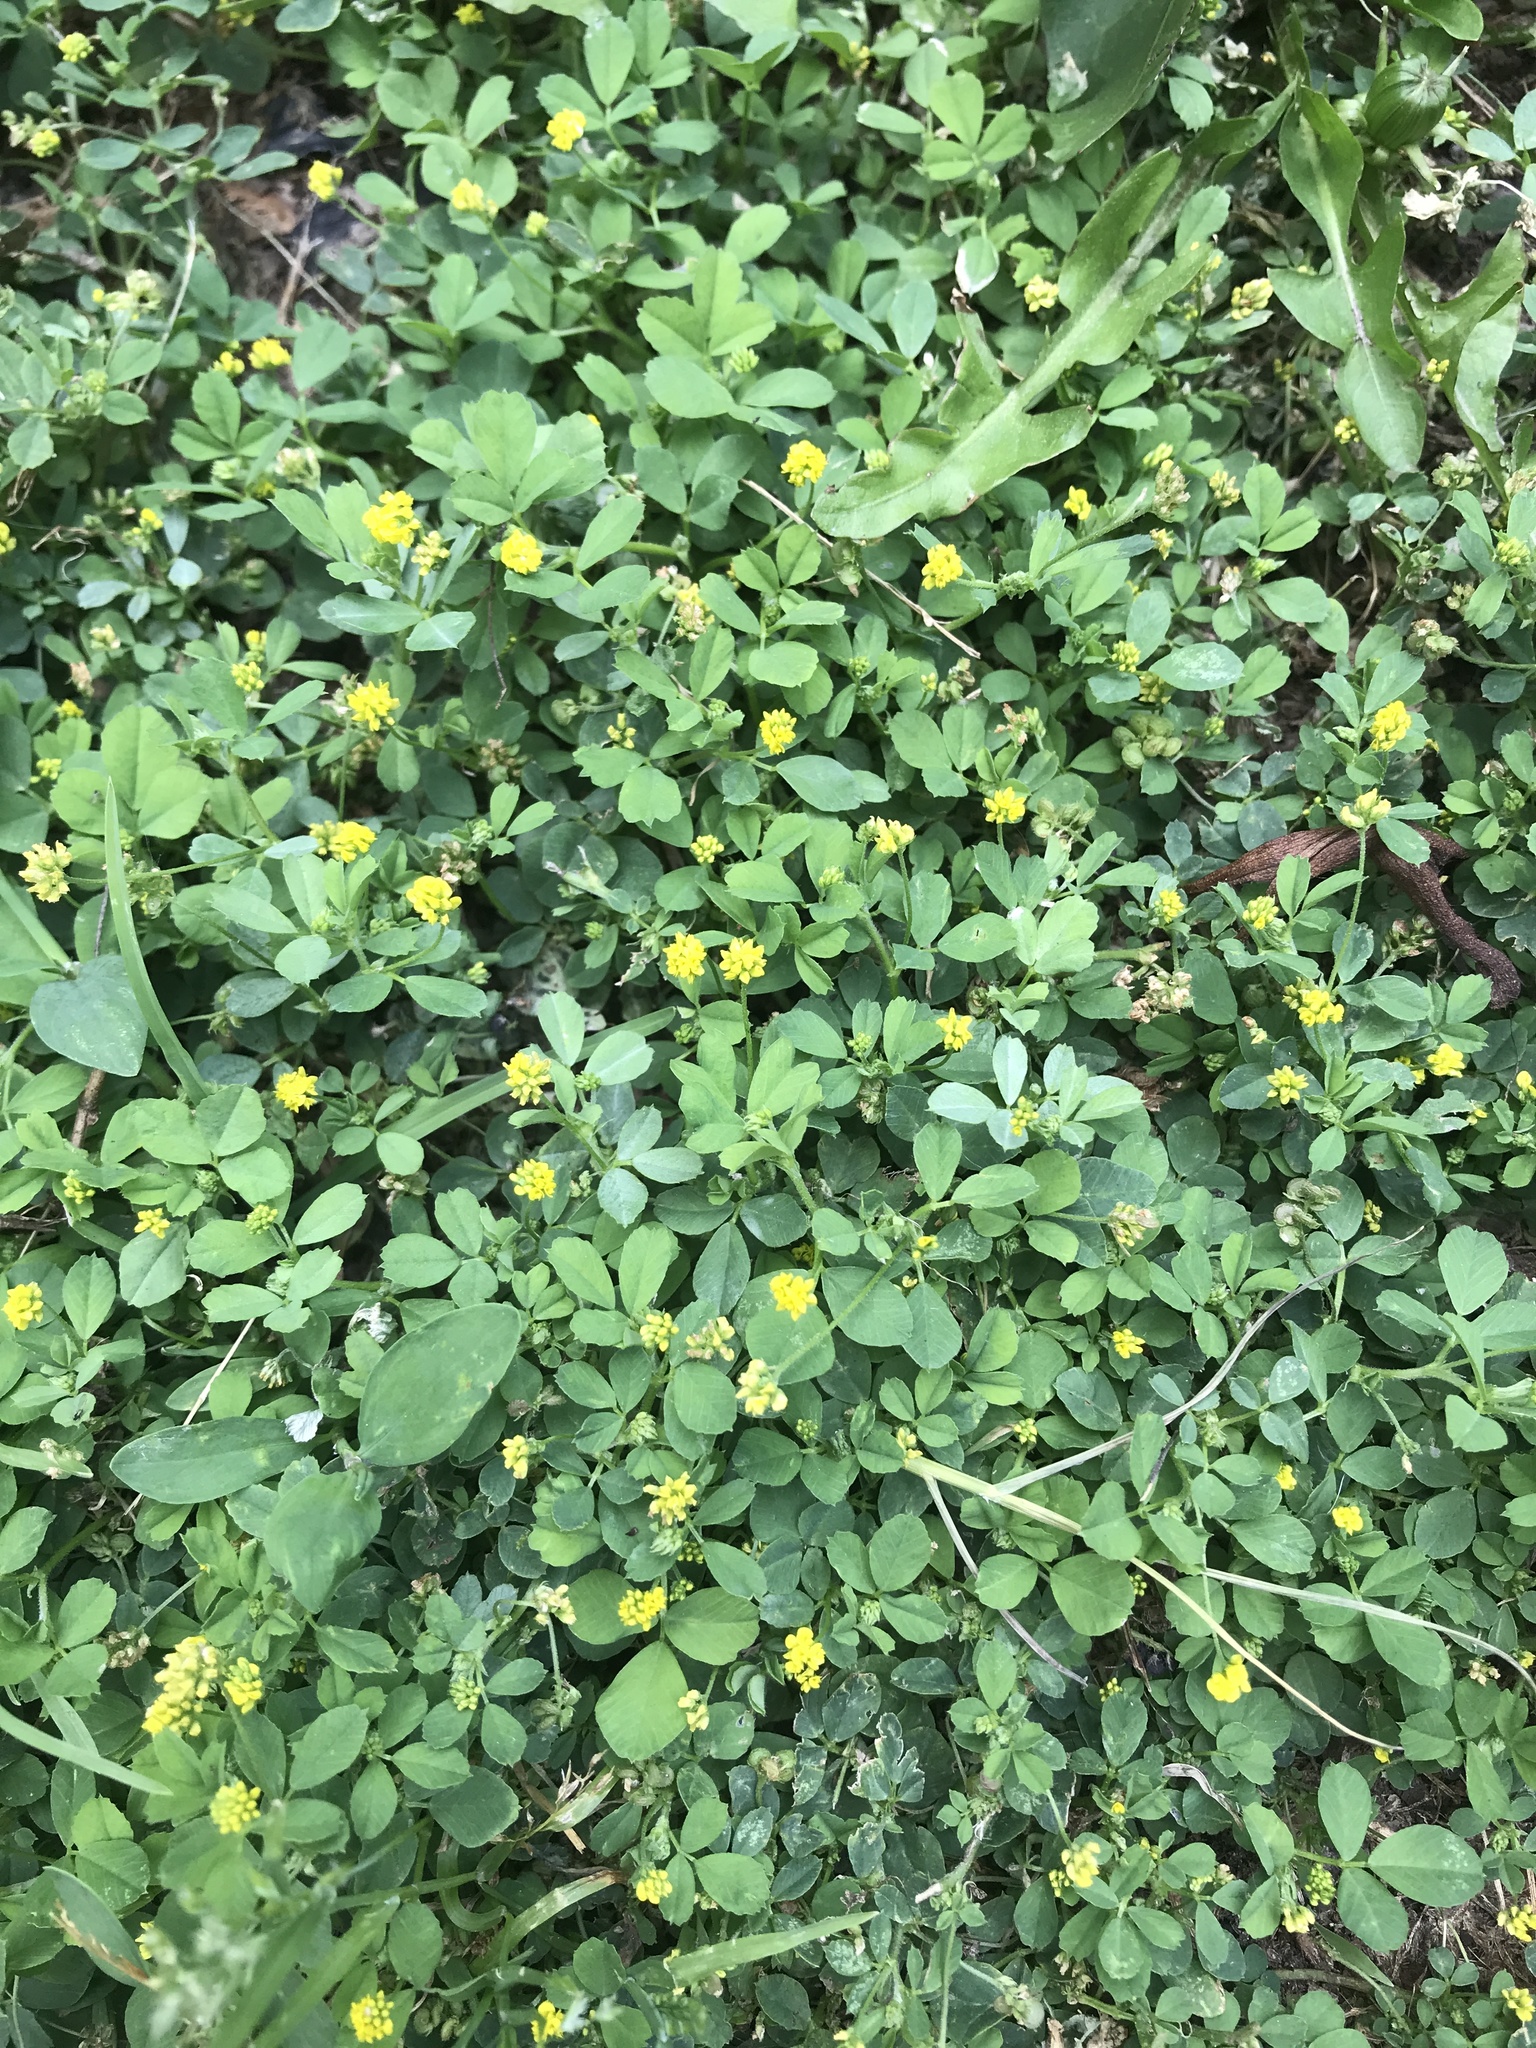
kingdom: Plantae
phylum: Tracheophyta
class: Magnoliopsida
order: Fabales
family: Fabaceae
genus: Medicago
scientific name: Medicago lupulina
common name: Black medick
